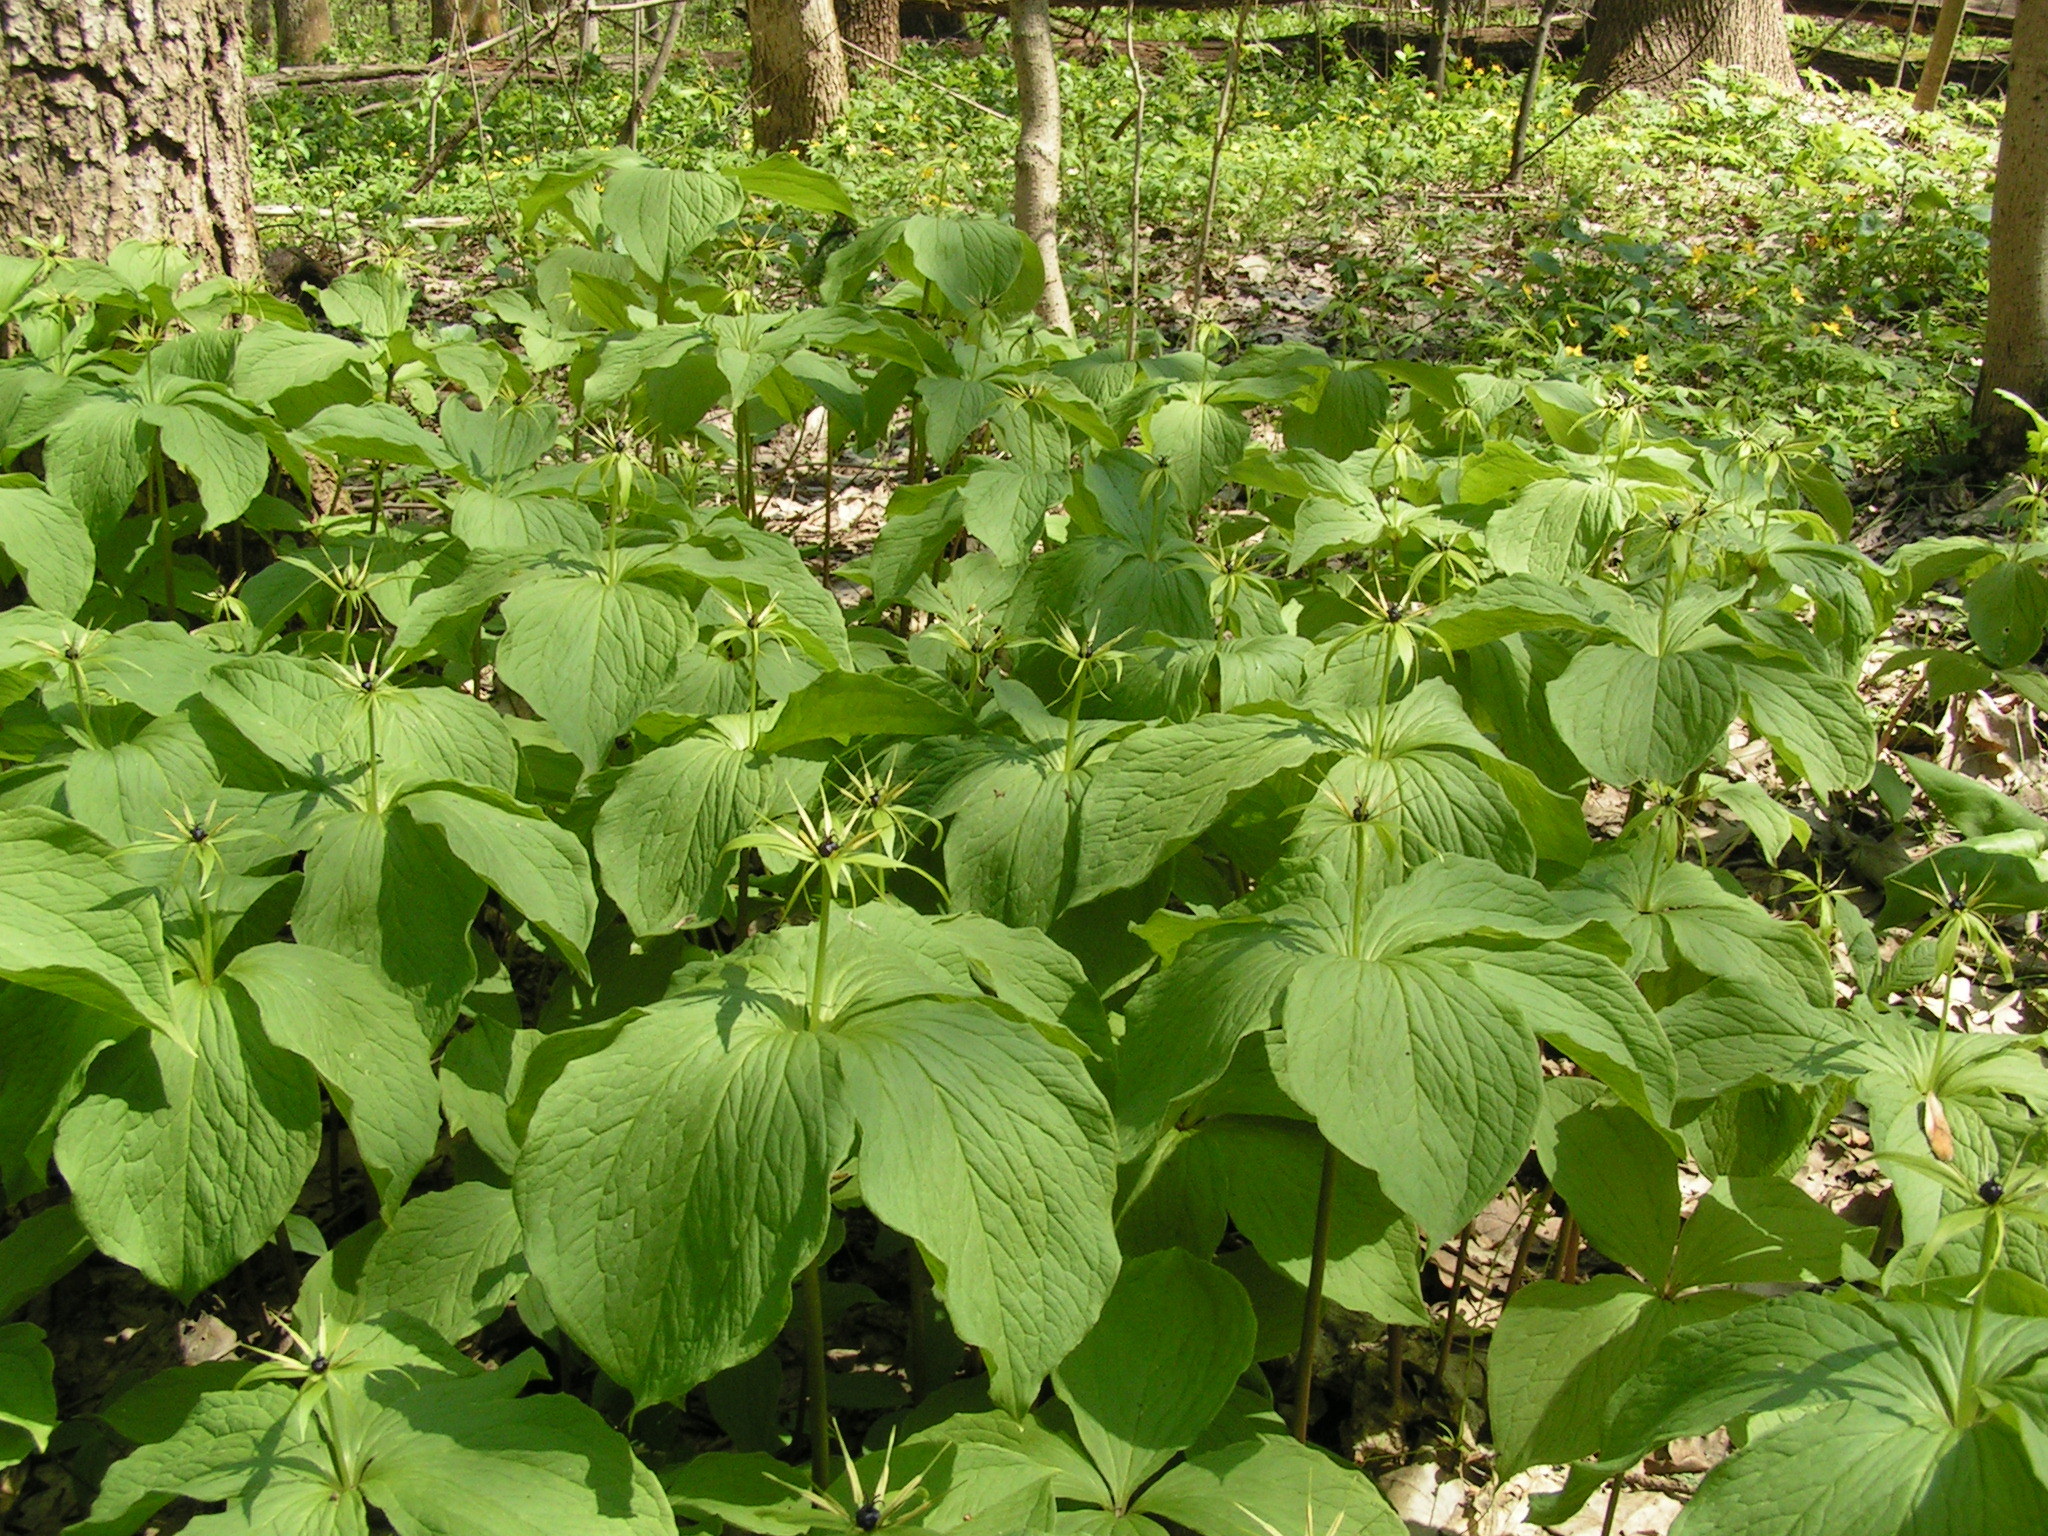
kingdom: Plantae
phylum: Tracheophyta
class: Liliopsida
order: Liliales
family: Melanthiaceae
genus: Paris
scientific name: Paris quadrifolia
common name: Herb-paris
